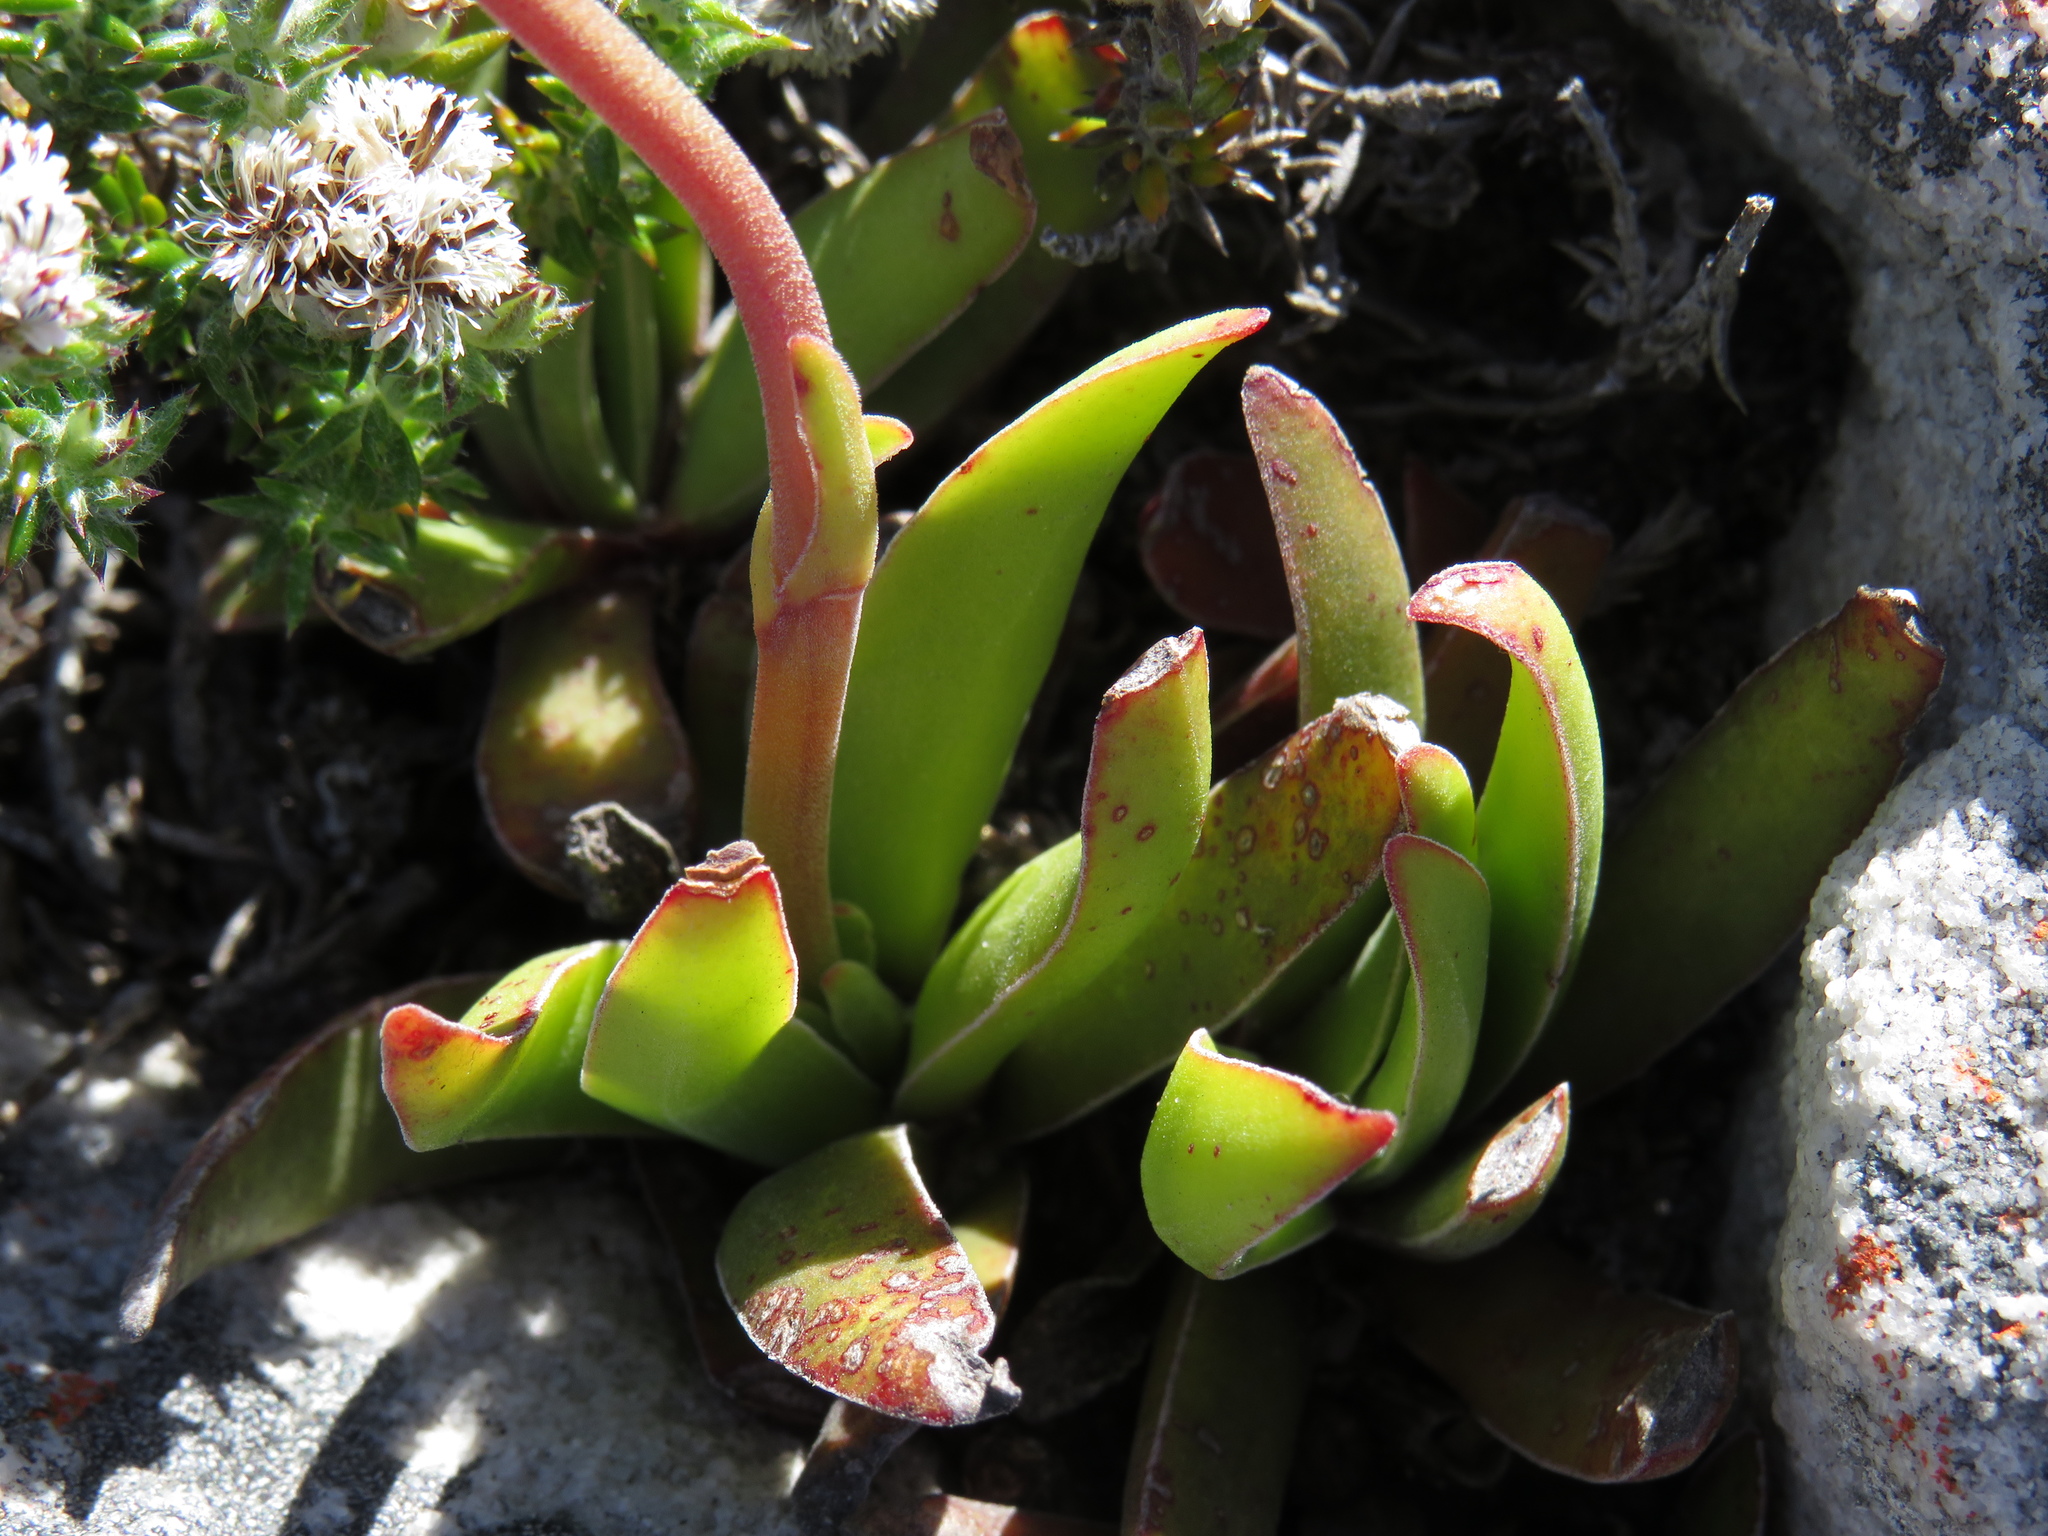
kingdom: Plantae
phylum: Tracheophyta
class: Magnoliopsida
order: Saxifragales
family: Crassulaceae
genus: Crassula
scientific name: Crassula nudicaulis
